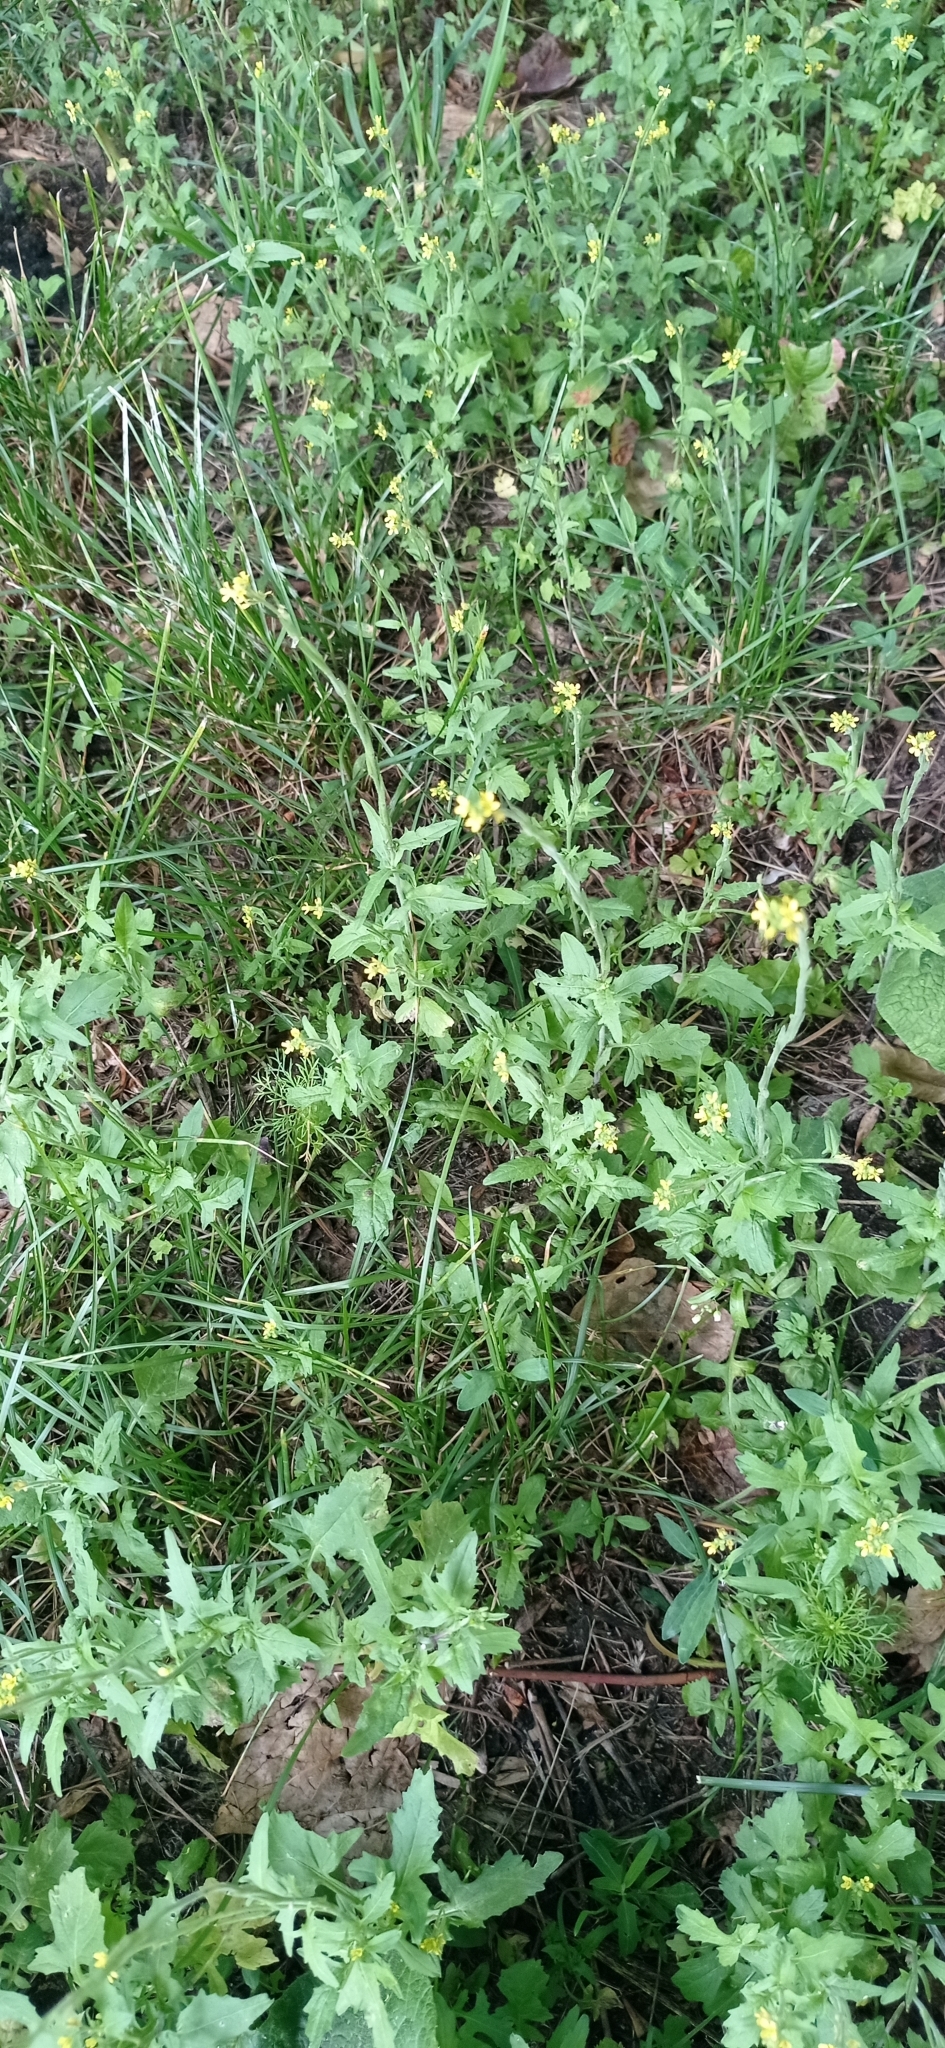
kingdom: Plantae
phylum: Tracheophyta
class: Magnoliopsida
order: Brassicales
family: Brassicaceae
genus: Sisymbrium
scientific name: Sisymbrium officinale
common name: Hedge mustard
